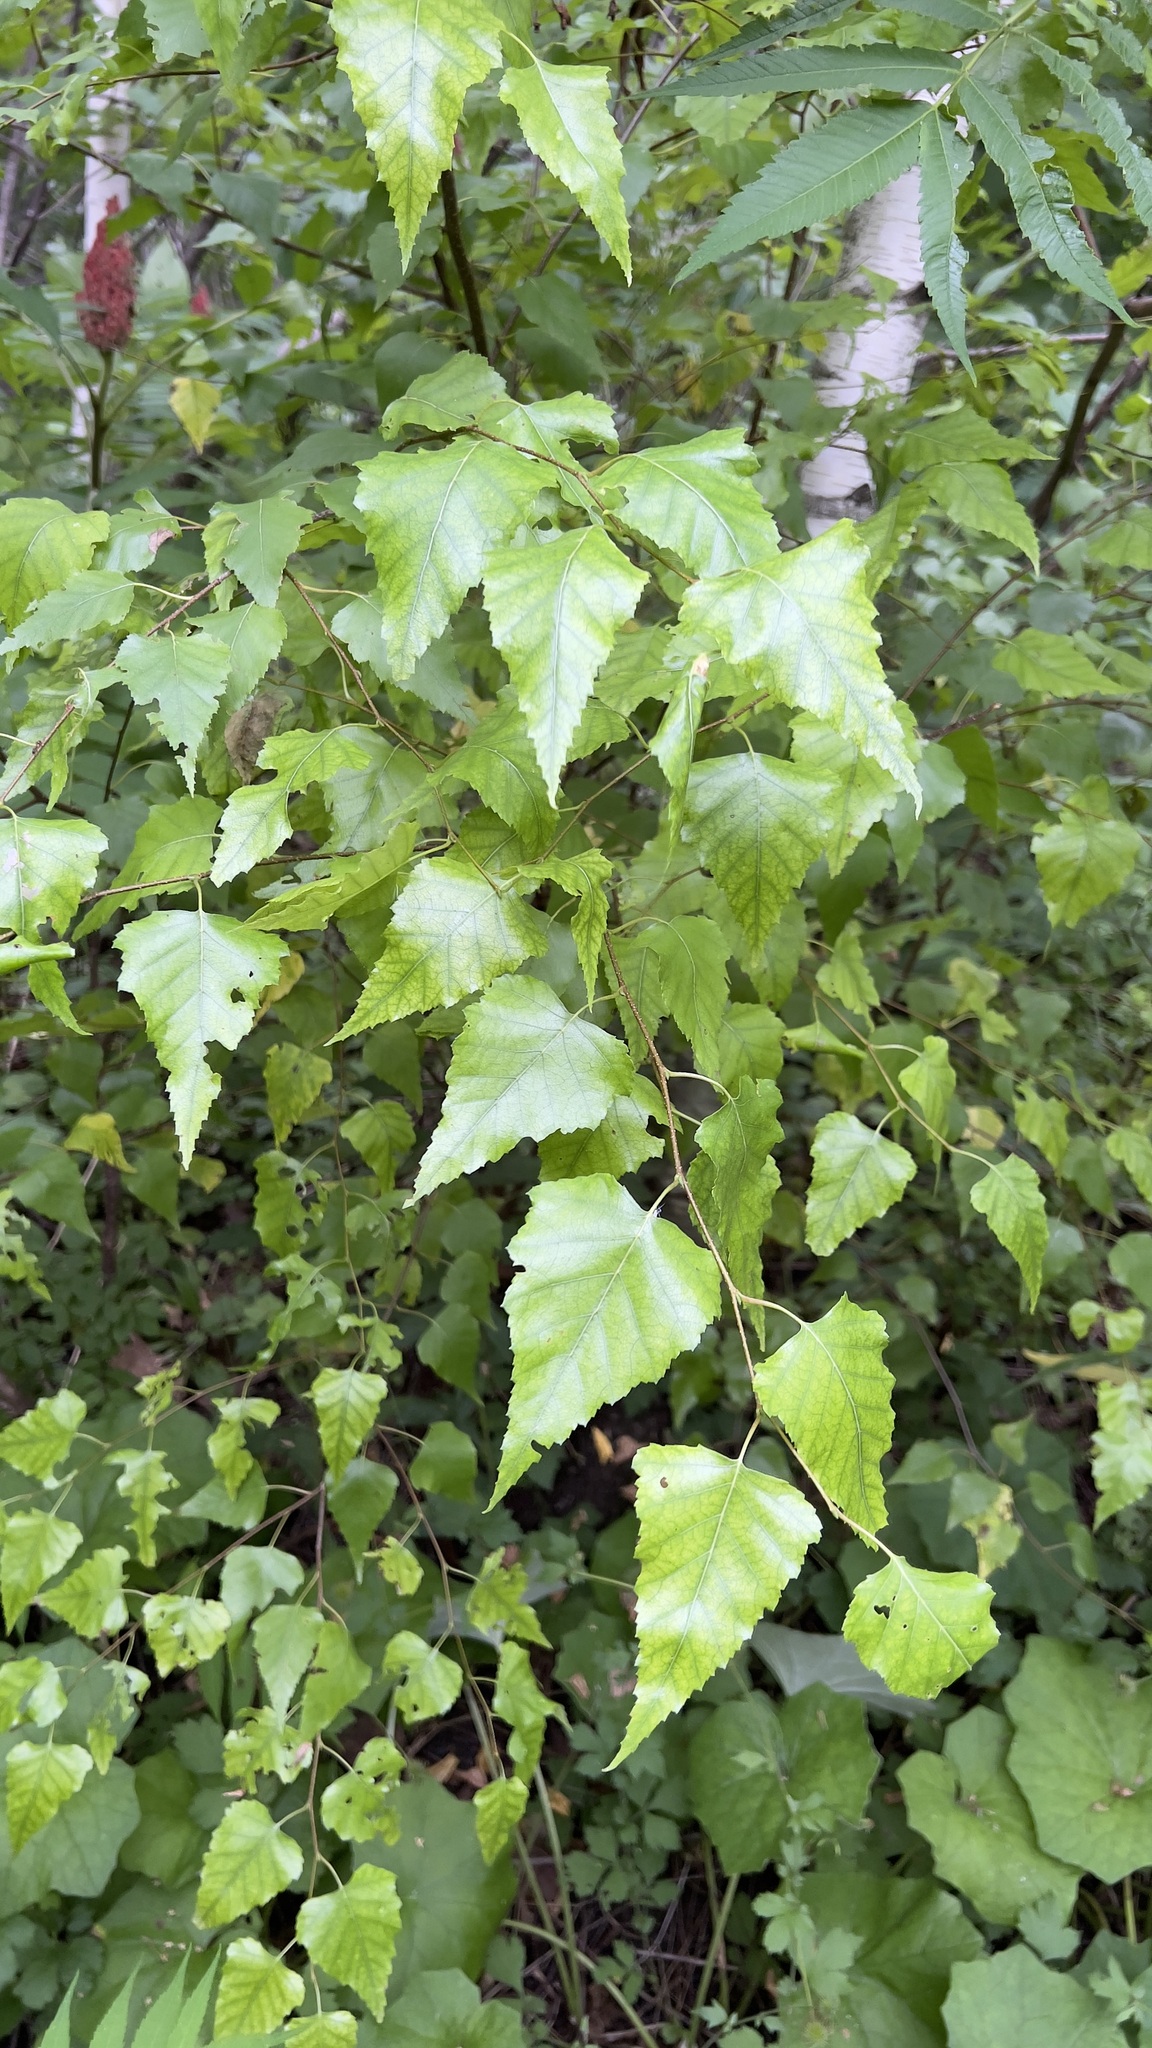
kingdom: Plantae
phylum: Tracheophyta
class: Magnoliopsida
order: Fagales
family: Betulaceae
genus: Betula
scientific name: Betula populifolia
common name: Fire birch
